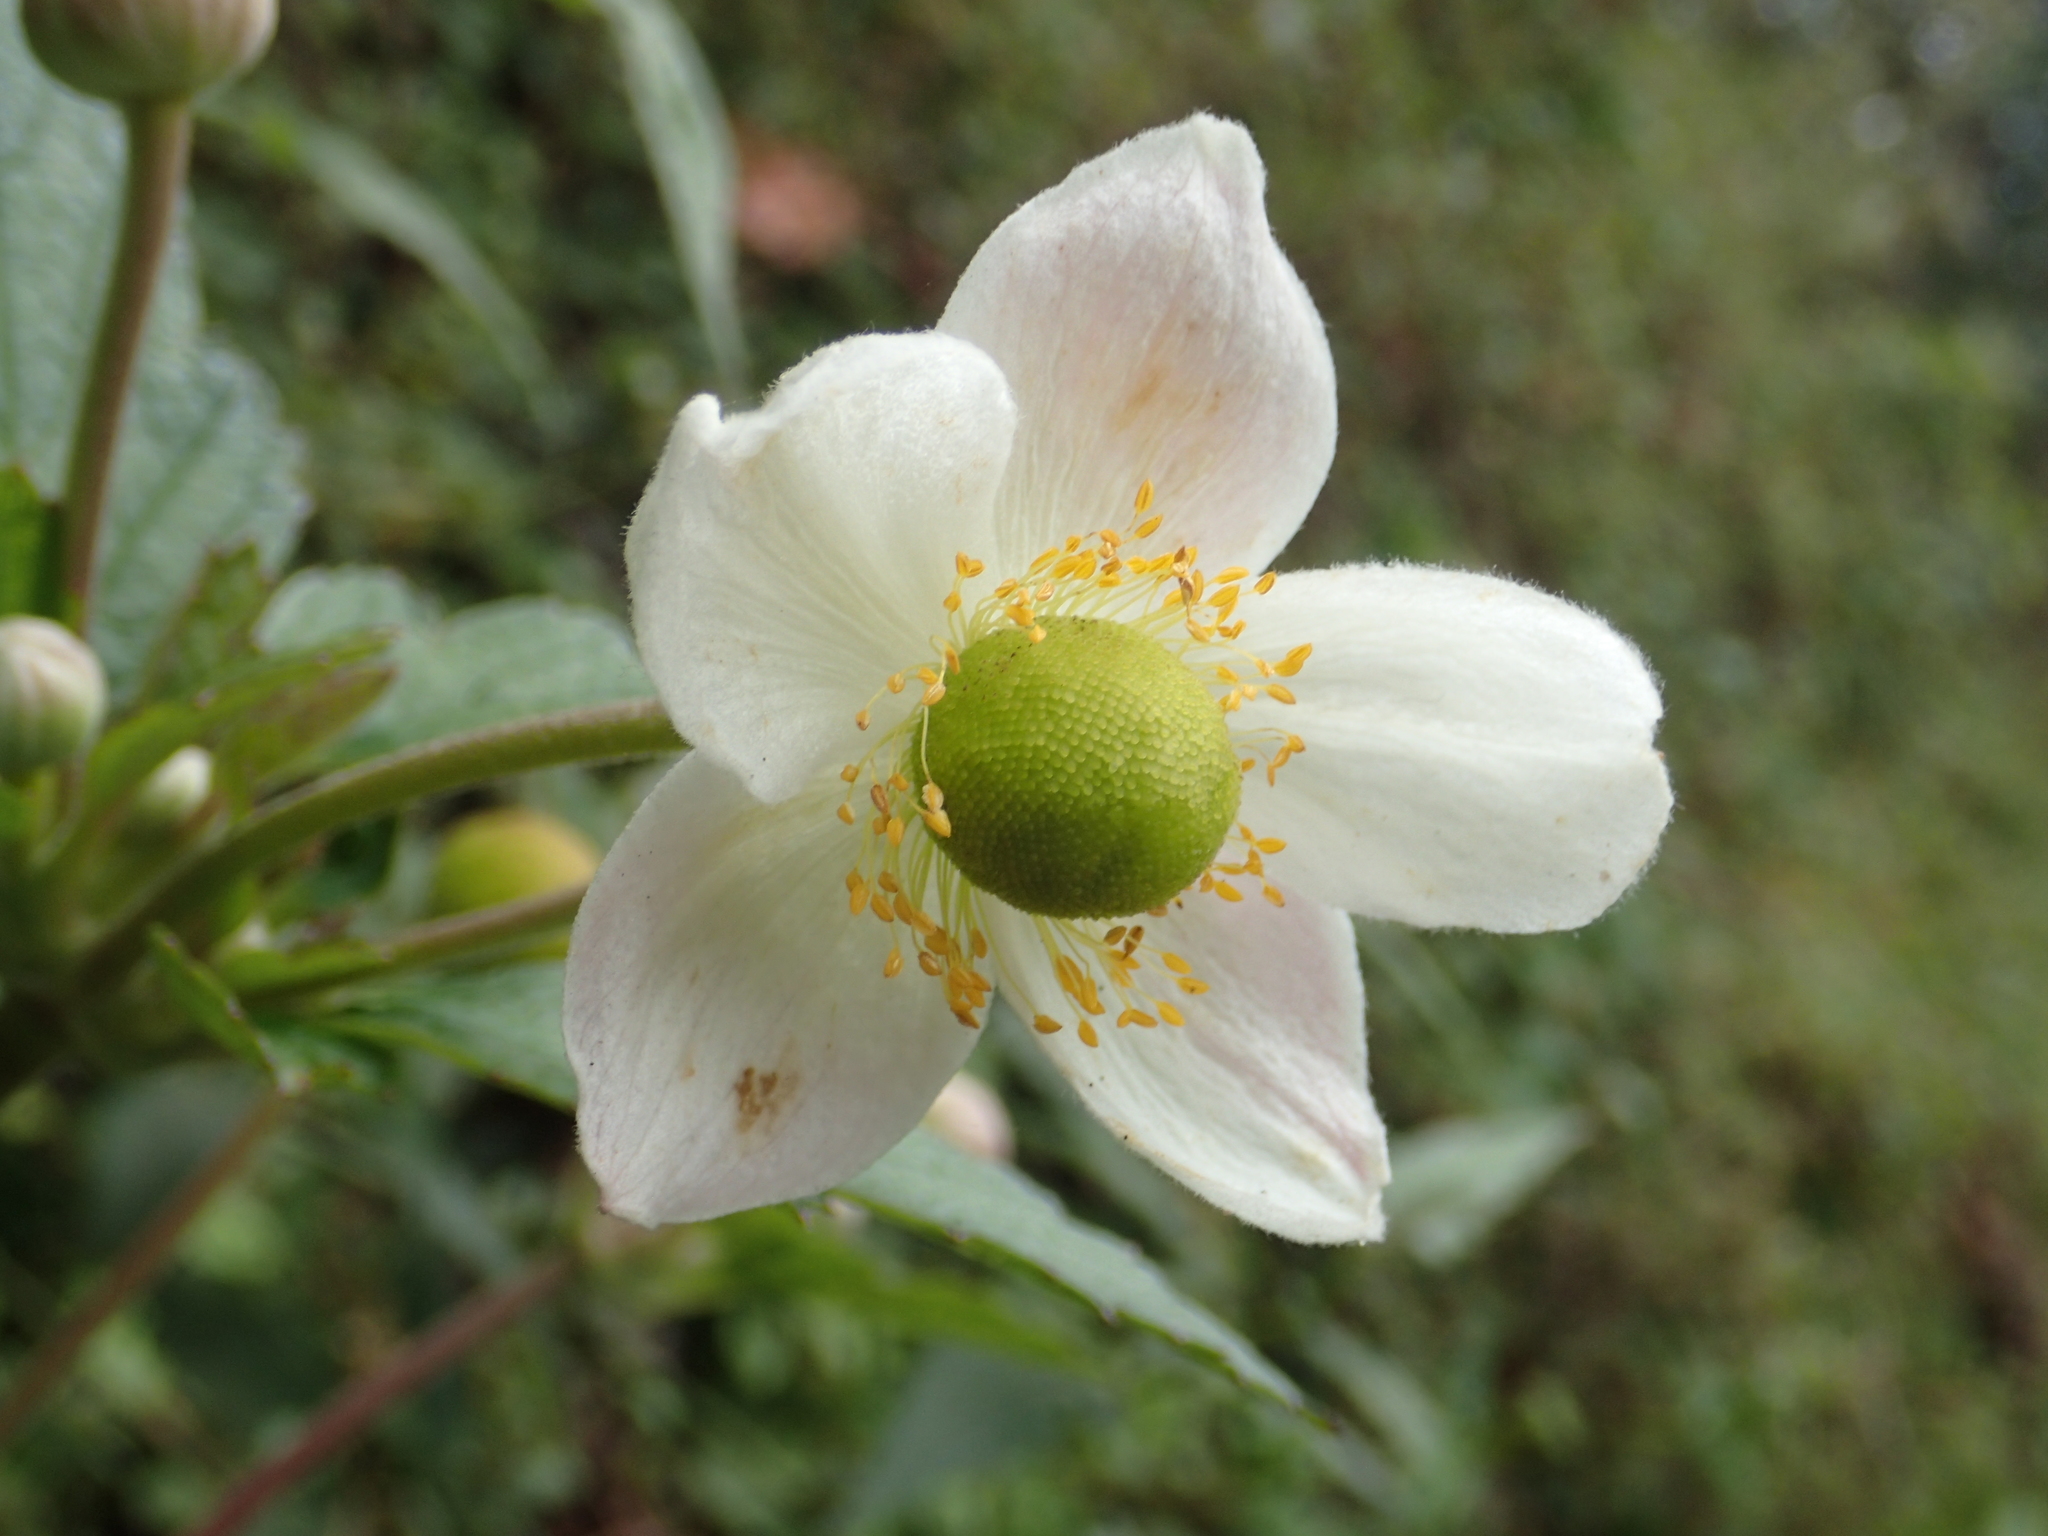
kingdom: Plantae
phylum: Tracheophyta
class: Magnoliopsida
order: Ranunculales
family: Ranunculaceae
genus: Eriocapitella
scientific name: Eriocapitella vitifolia
